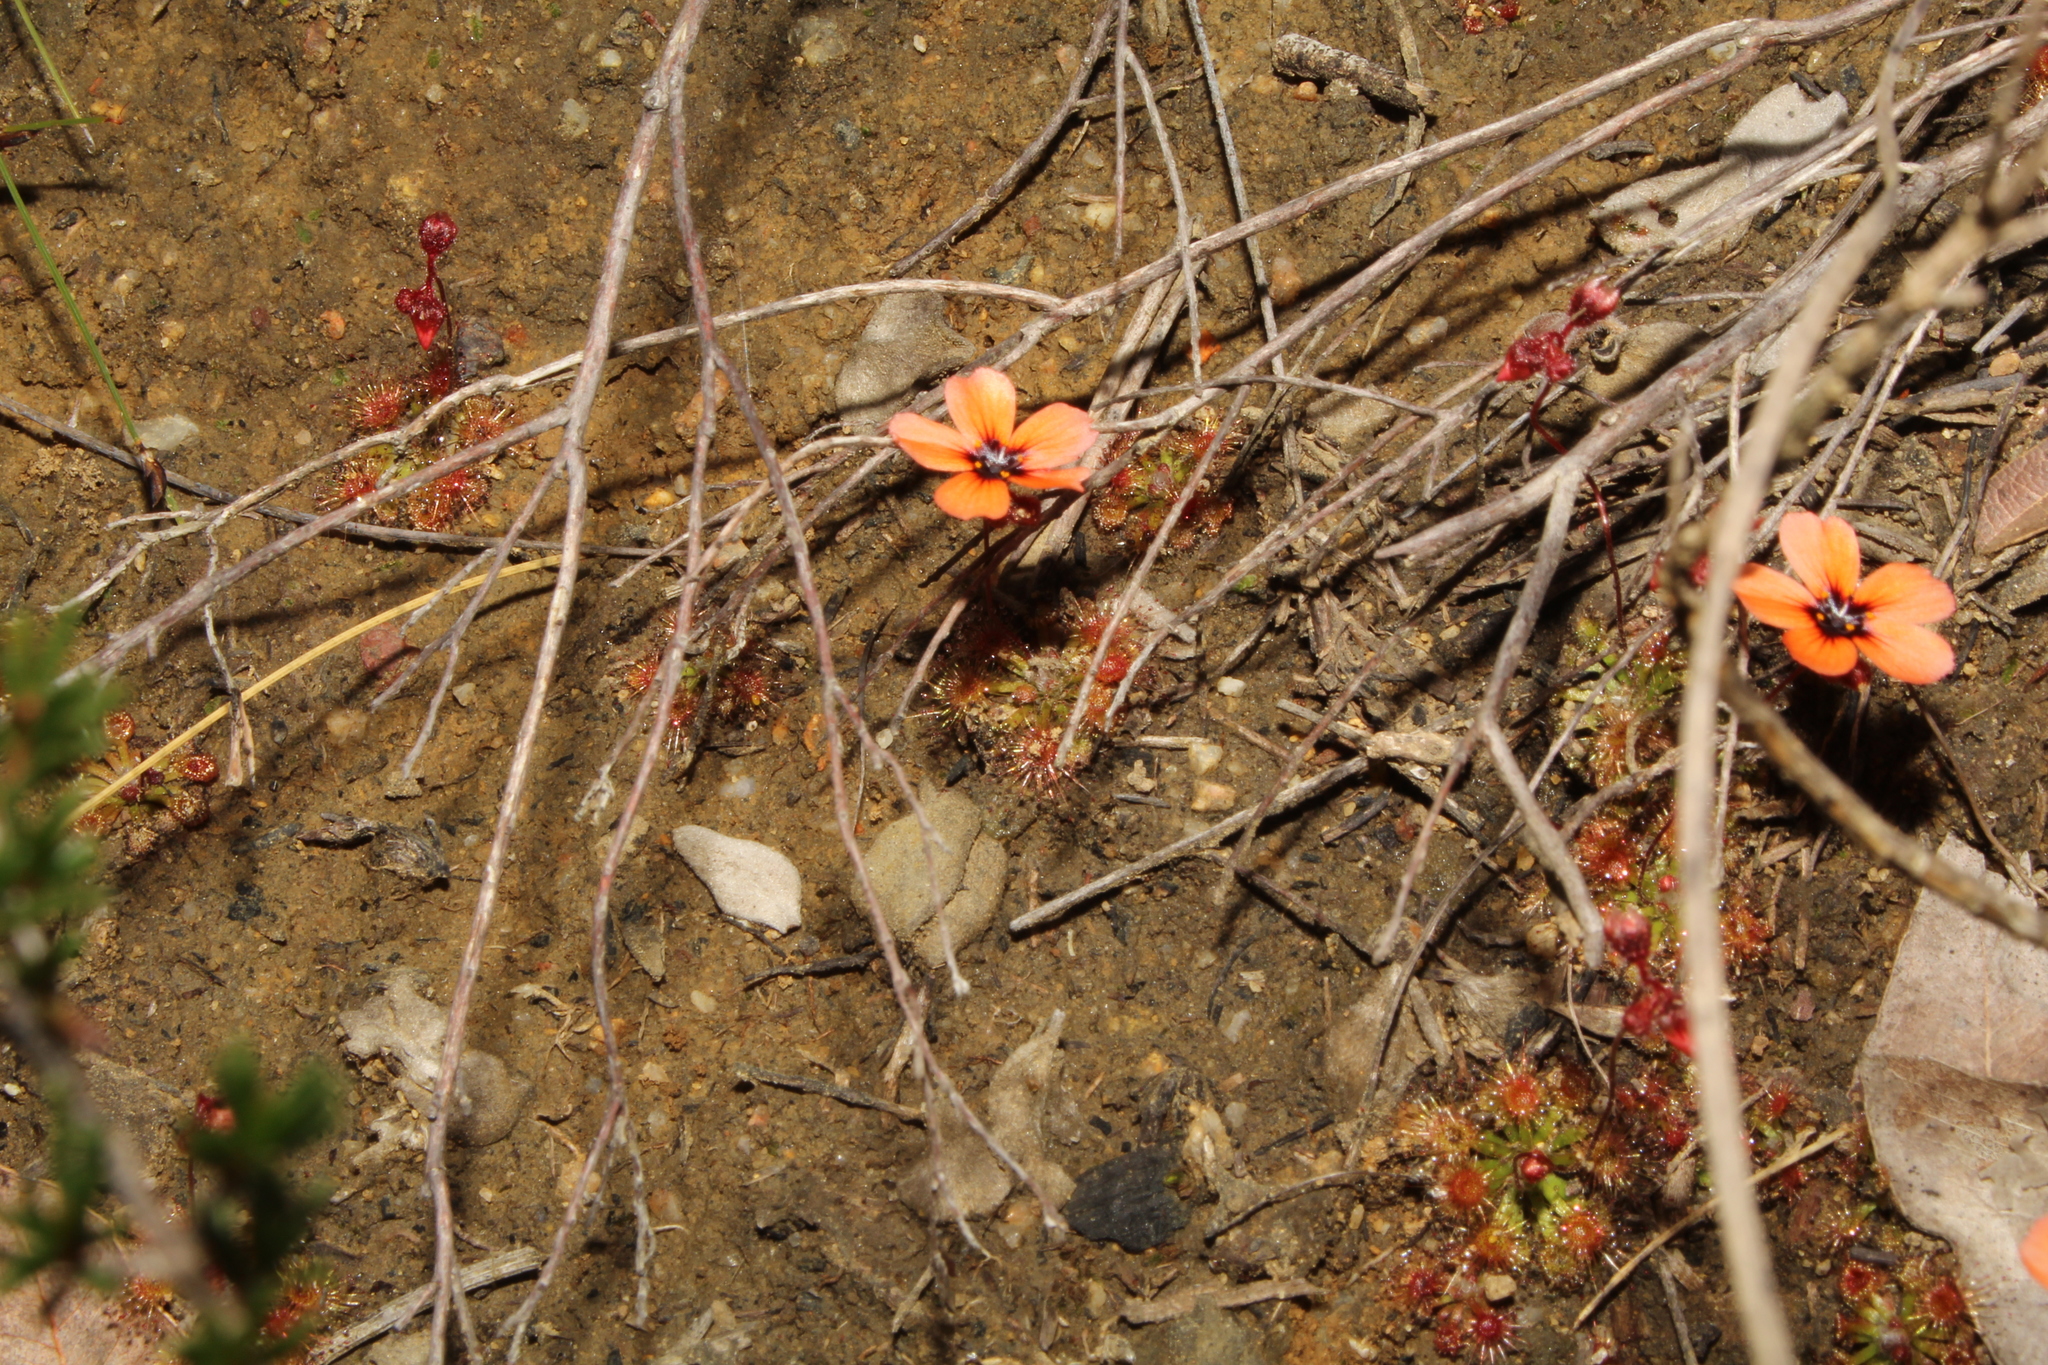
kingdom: Plantae
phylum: Tracheophyta
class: Magnoliopsida
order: Caryophyllales
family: Droseraceae
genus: Drosera
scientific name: Drosera platystigma
